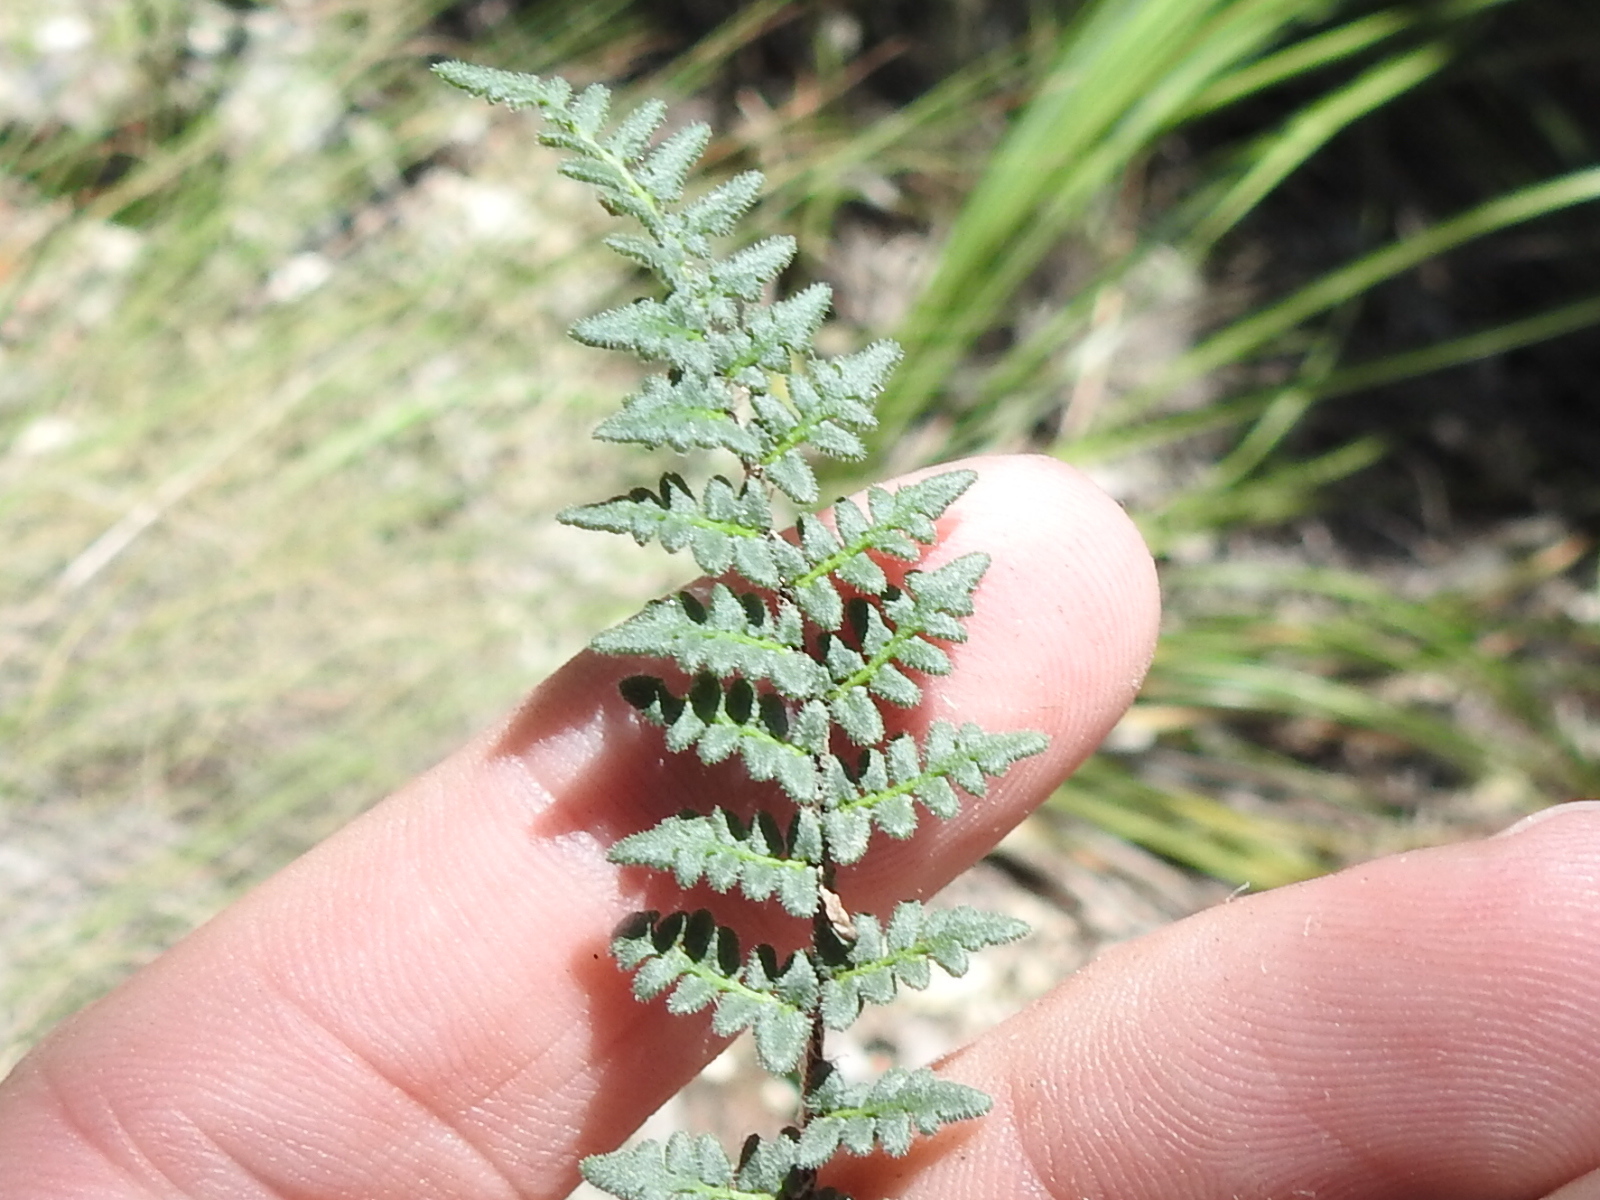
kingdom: Plantae
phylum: Tracheophyta
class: Polypodiopsida
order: Polypodiales
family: Pteridaceae
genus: Myriopteris
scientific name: Myriopteris scabra
